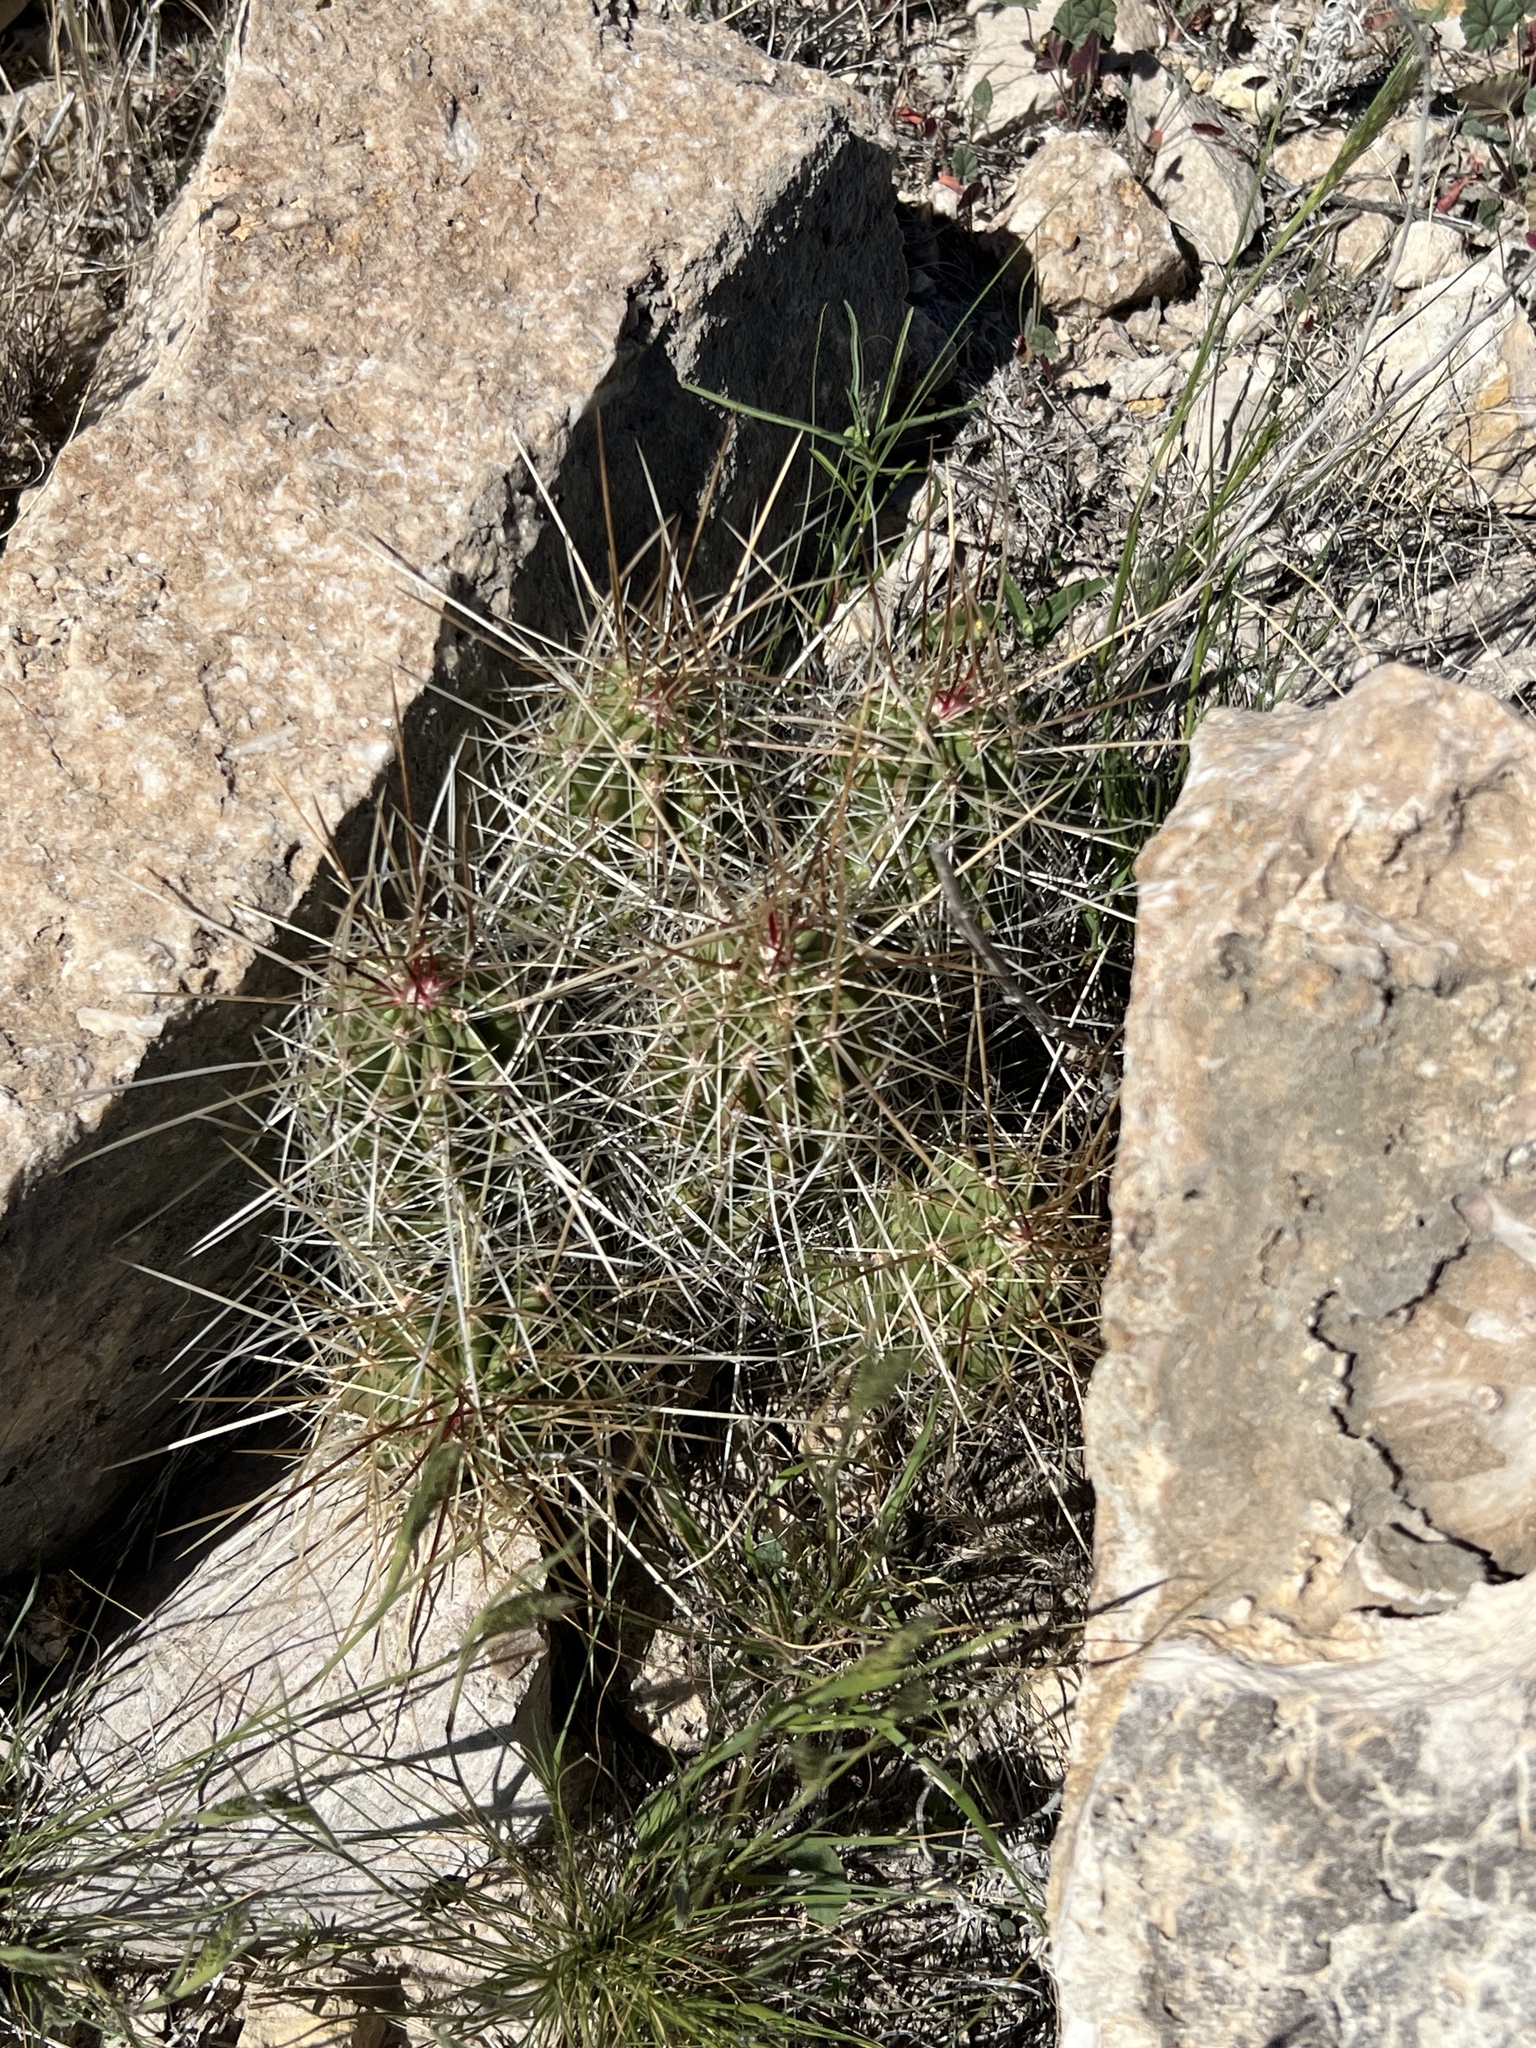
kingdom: Plantae
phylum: Tracheophyta
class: Magnoliopsida
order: Caryophyllales
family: Cactaceae
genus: Echinocereus
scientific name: Echinocereus stramineus
